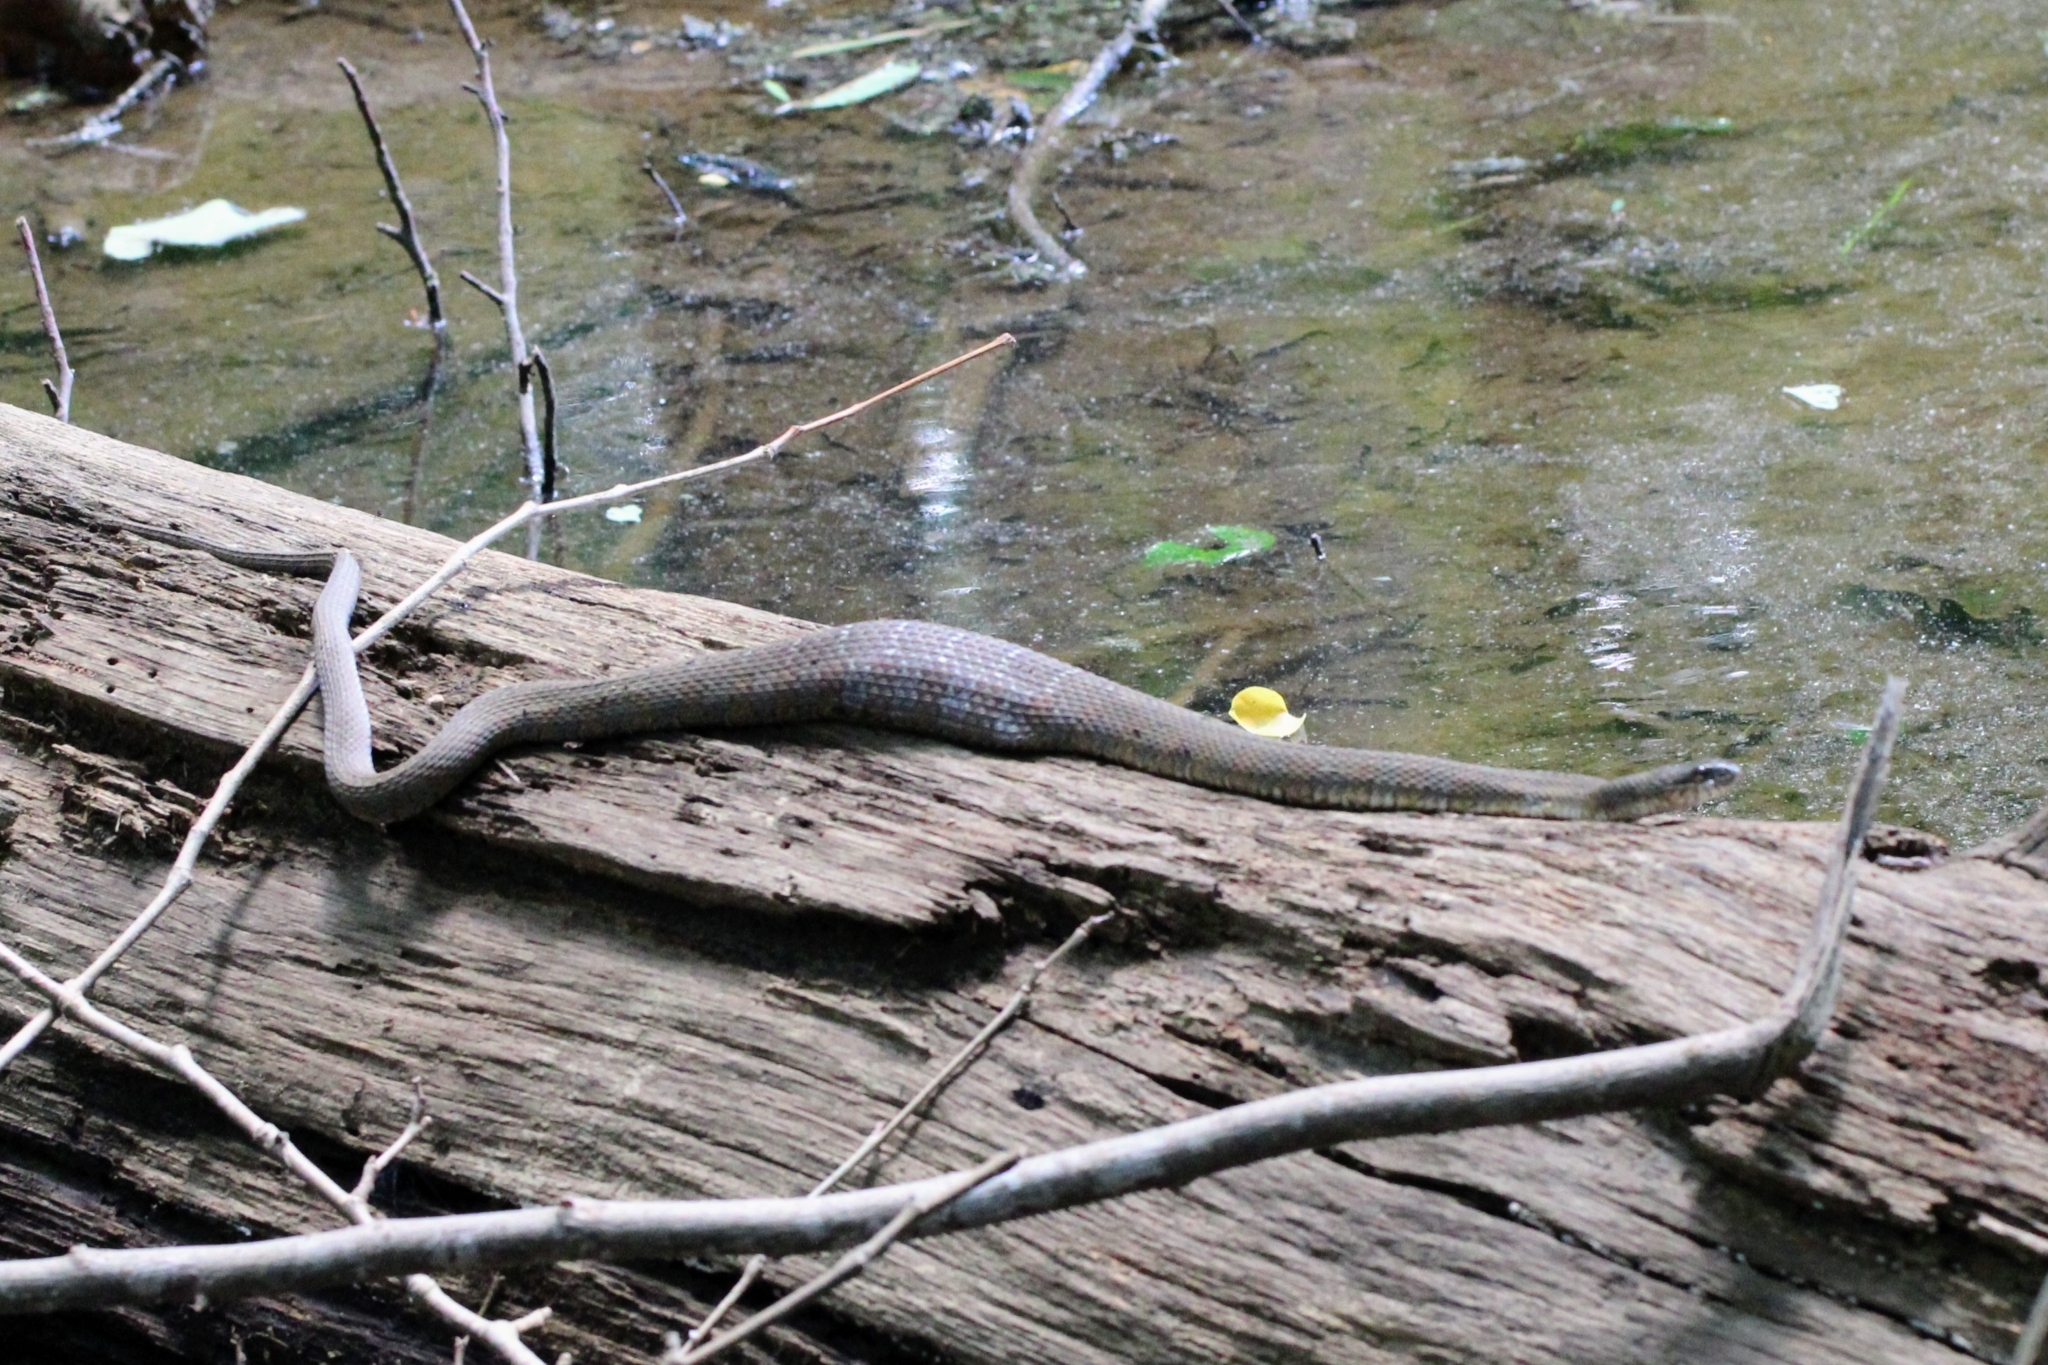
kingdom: Animalia
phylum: Chordata
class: Squamata
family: Colubridae
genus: Nerodia
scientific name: Nerodia sipedon
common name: Northern water snake
